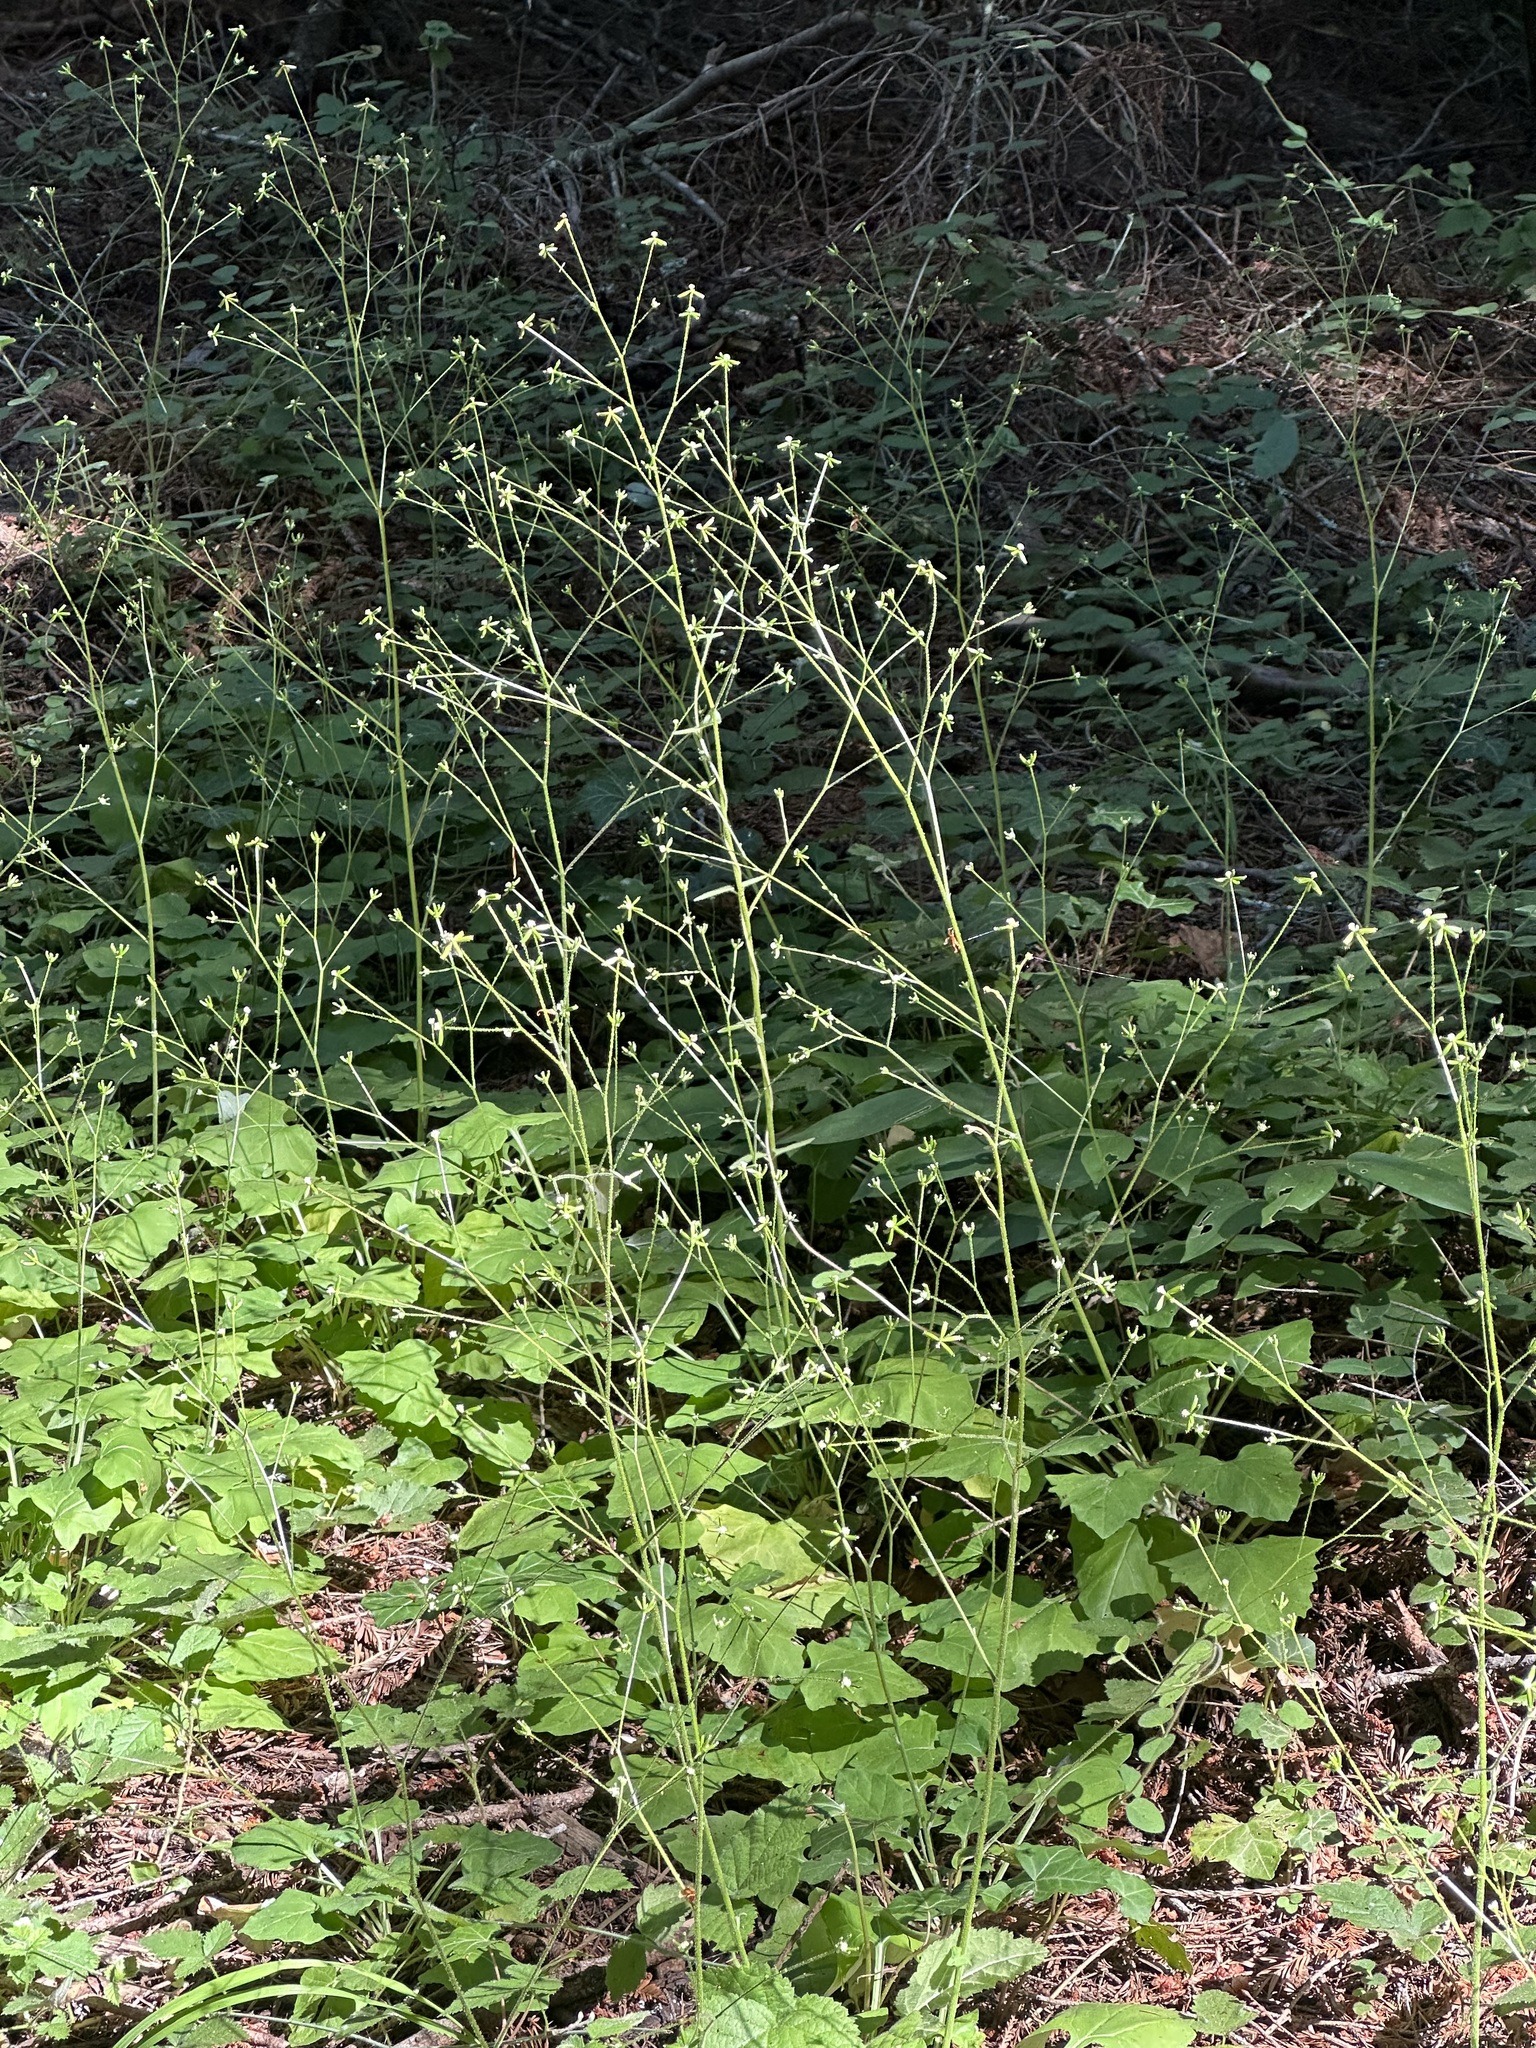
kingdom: Plantae
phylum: Tracheophyta
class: Magnoliopsida
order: Asterales
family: Asteraceae
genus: Adenocaulon
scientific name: Adenocaulon bicolor
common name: Trailplant
